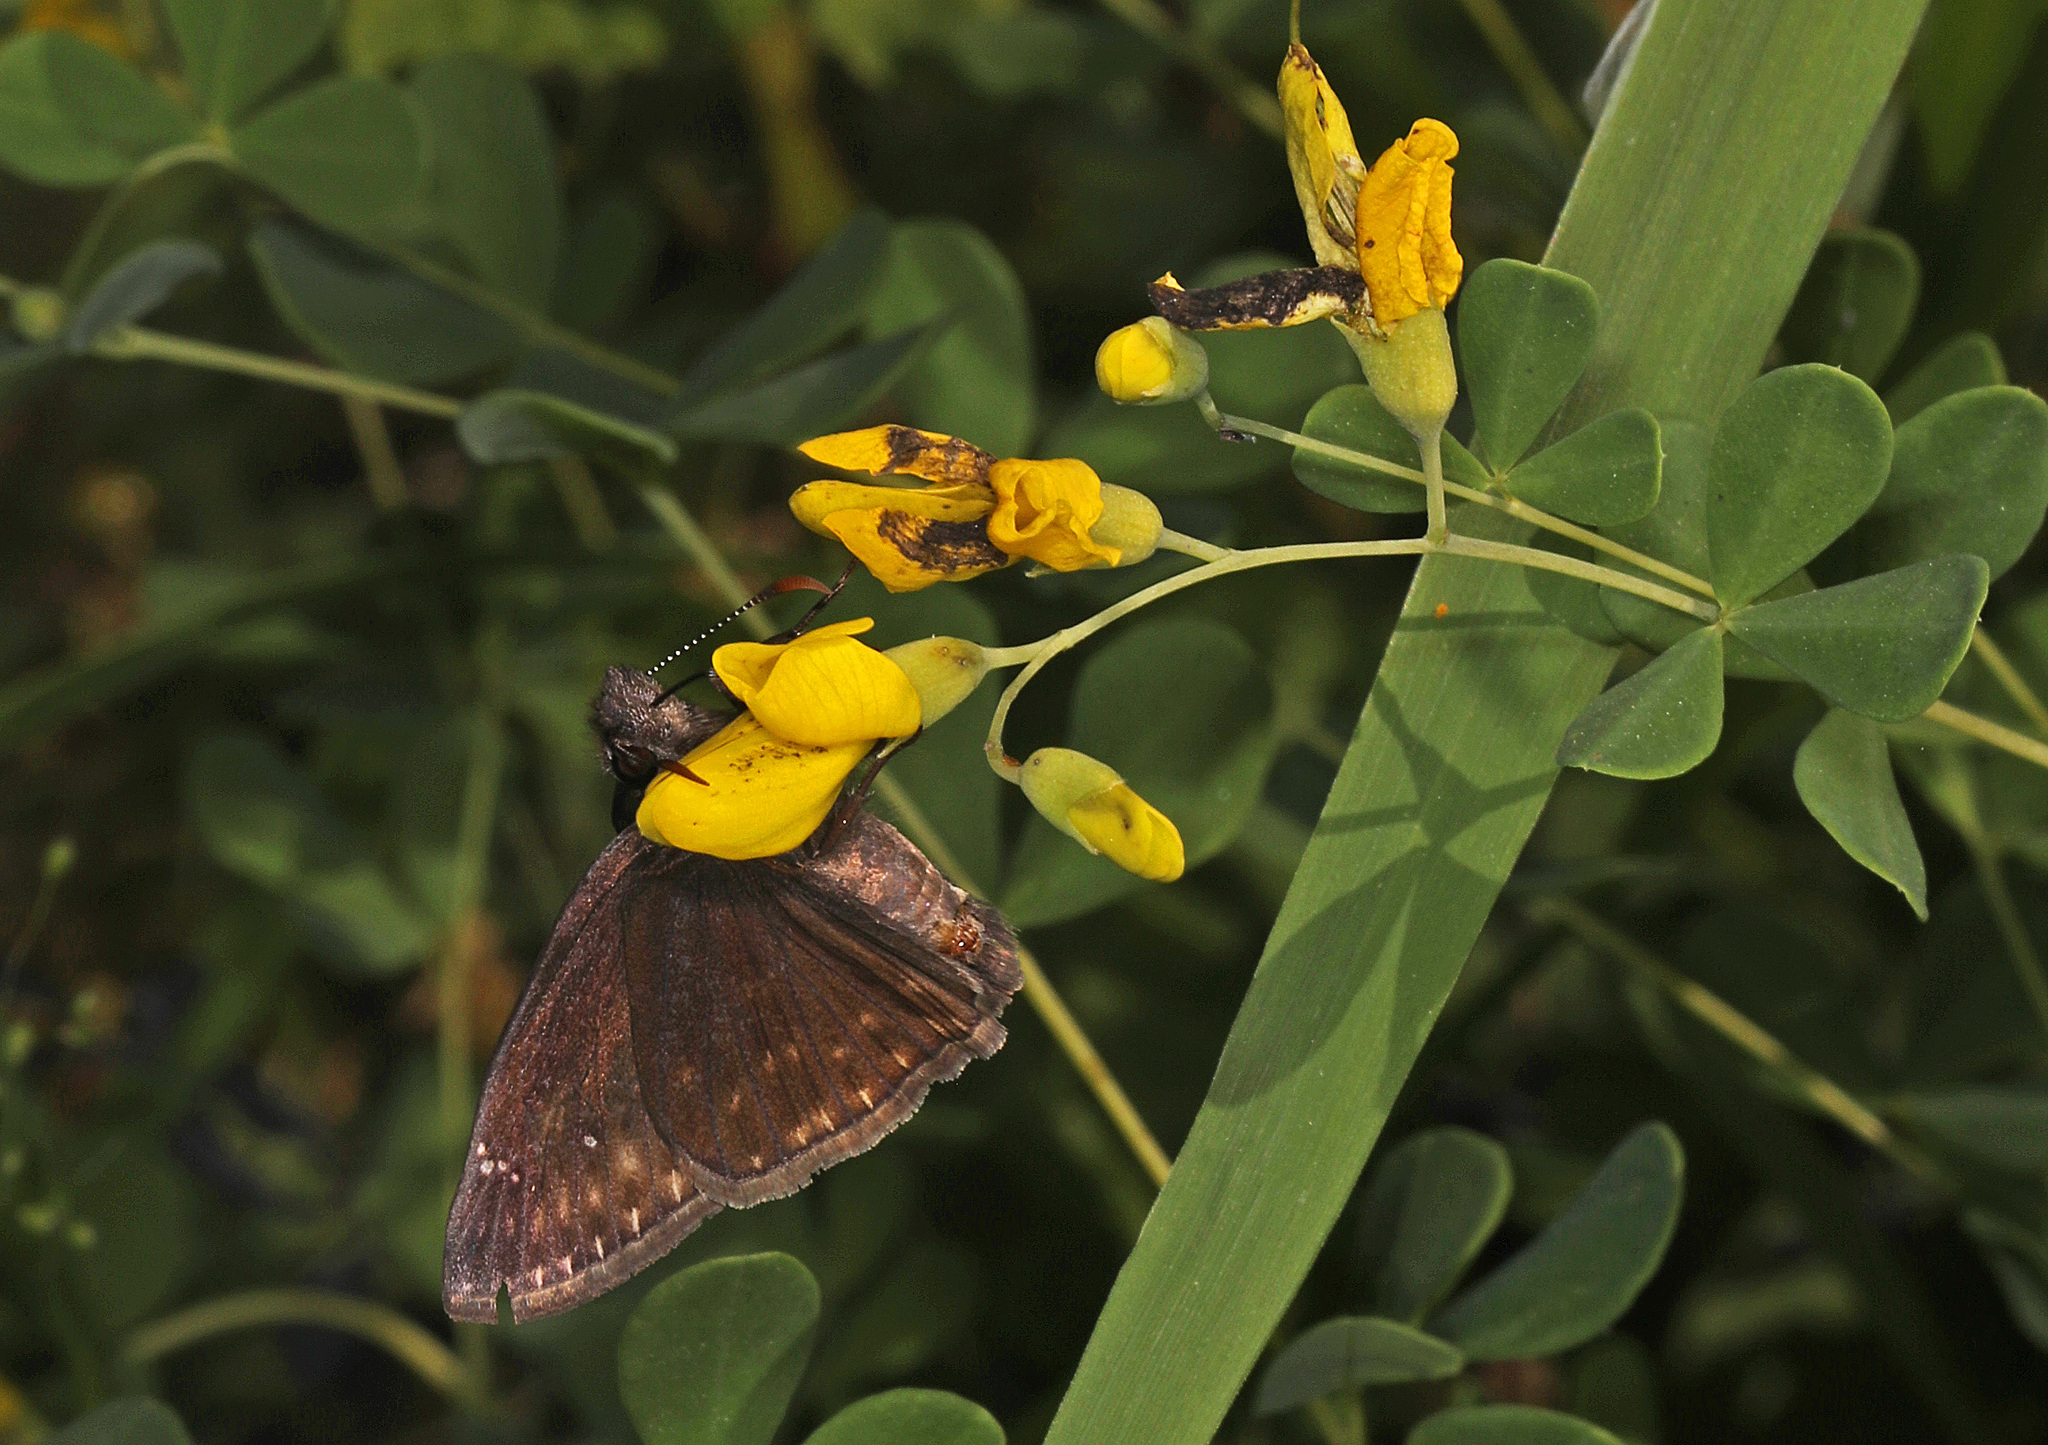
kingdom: Animalia
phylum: Arthropoda
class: Insecta
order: Lepidoptera
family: Hesperiidae
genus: Erynnis
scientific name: Erynnis baptisiae
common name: Wild indigo duskywing
